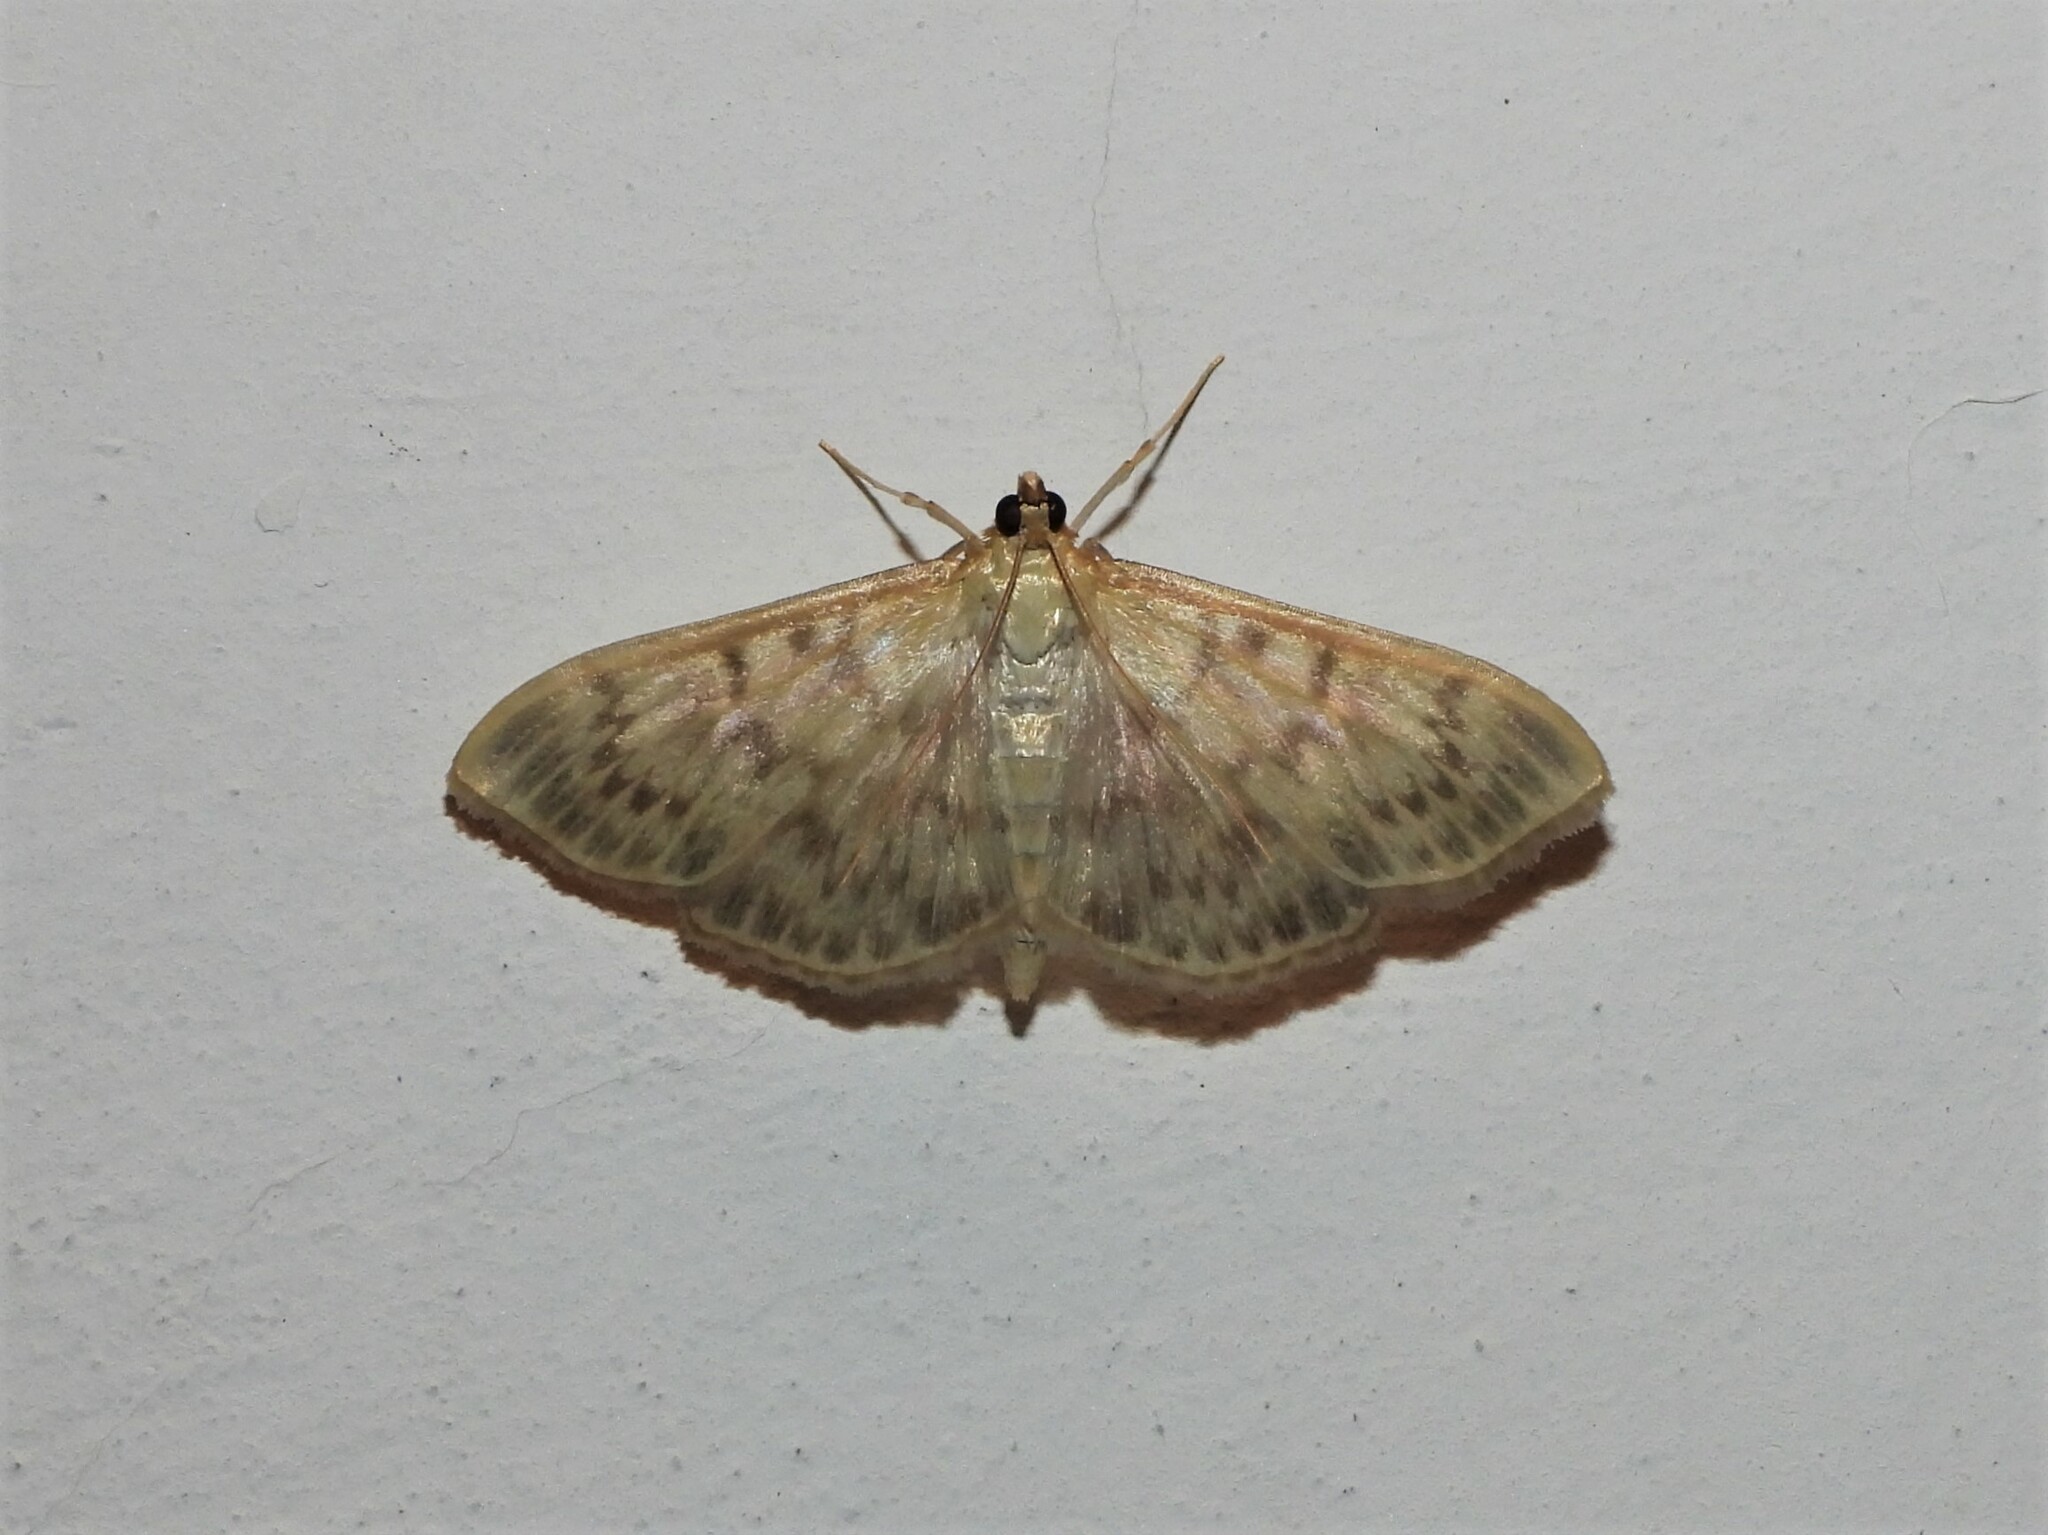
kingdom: Animalia
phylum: Arthropoda
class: Insecta
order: Lepidoptera
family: Crambidae
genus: Patania
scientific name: Patania ruralis
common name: Mother of pearl
